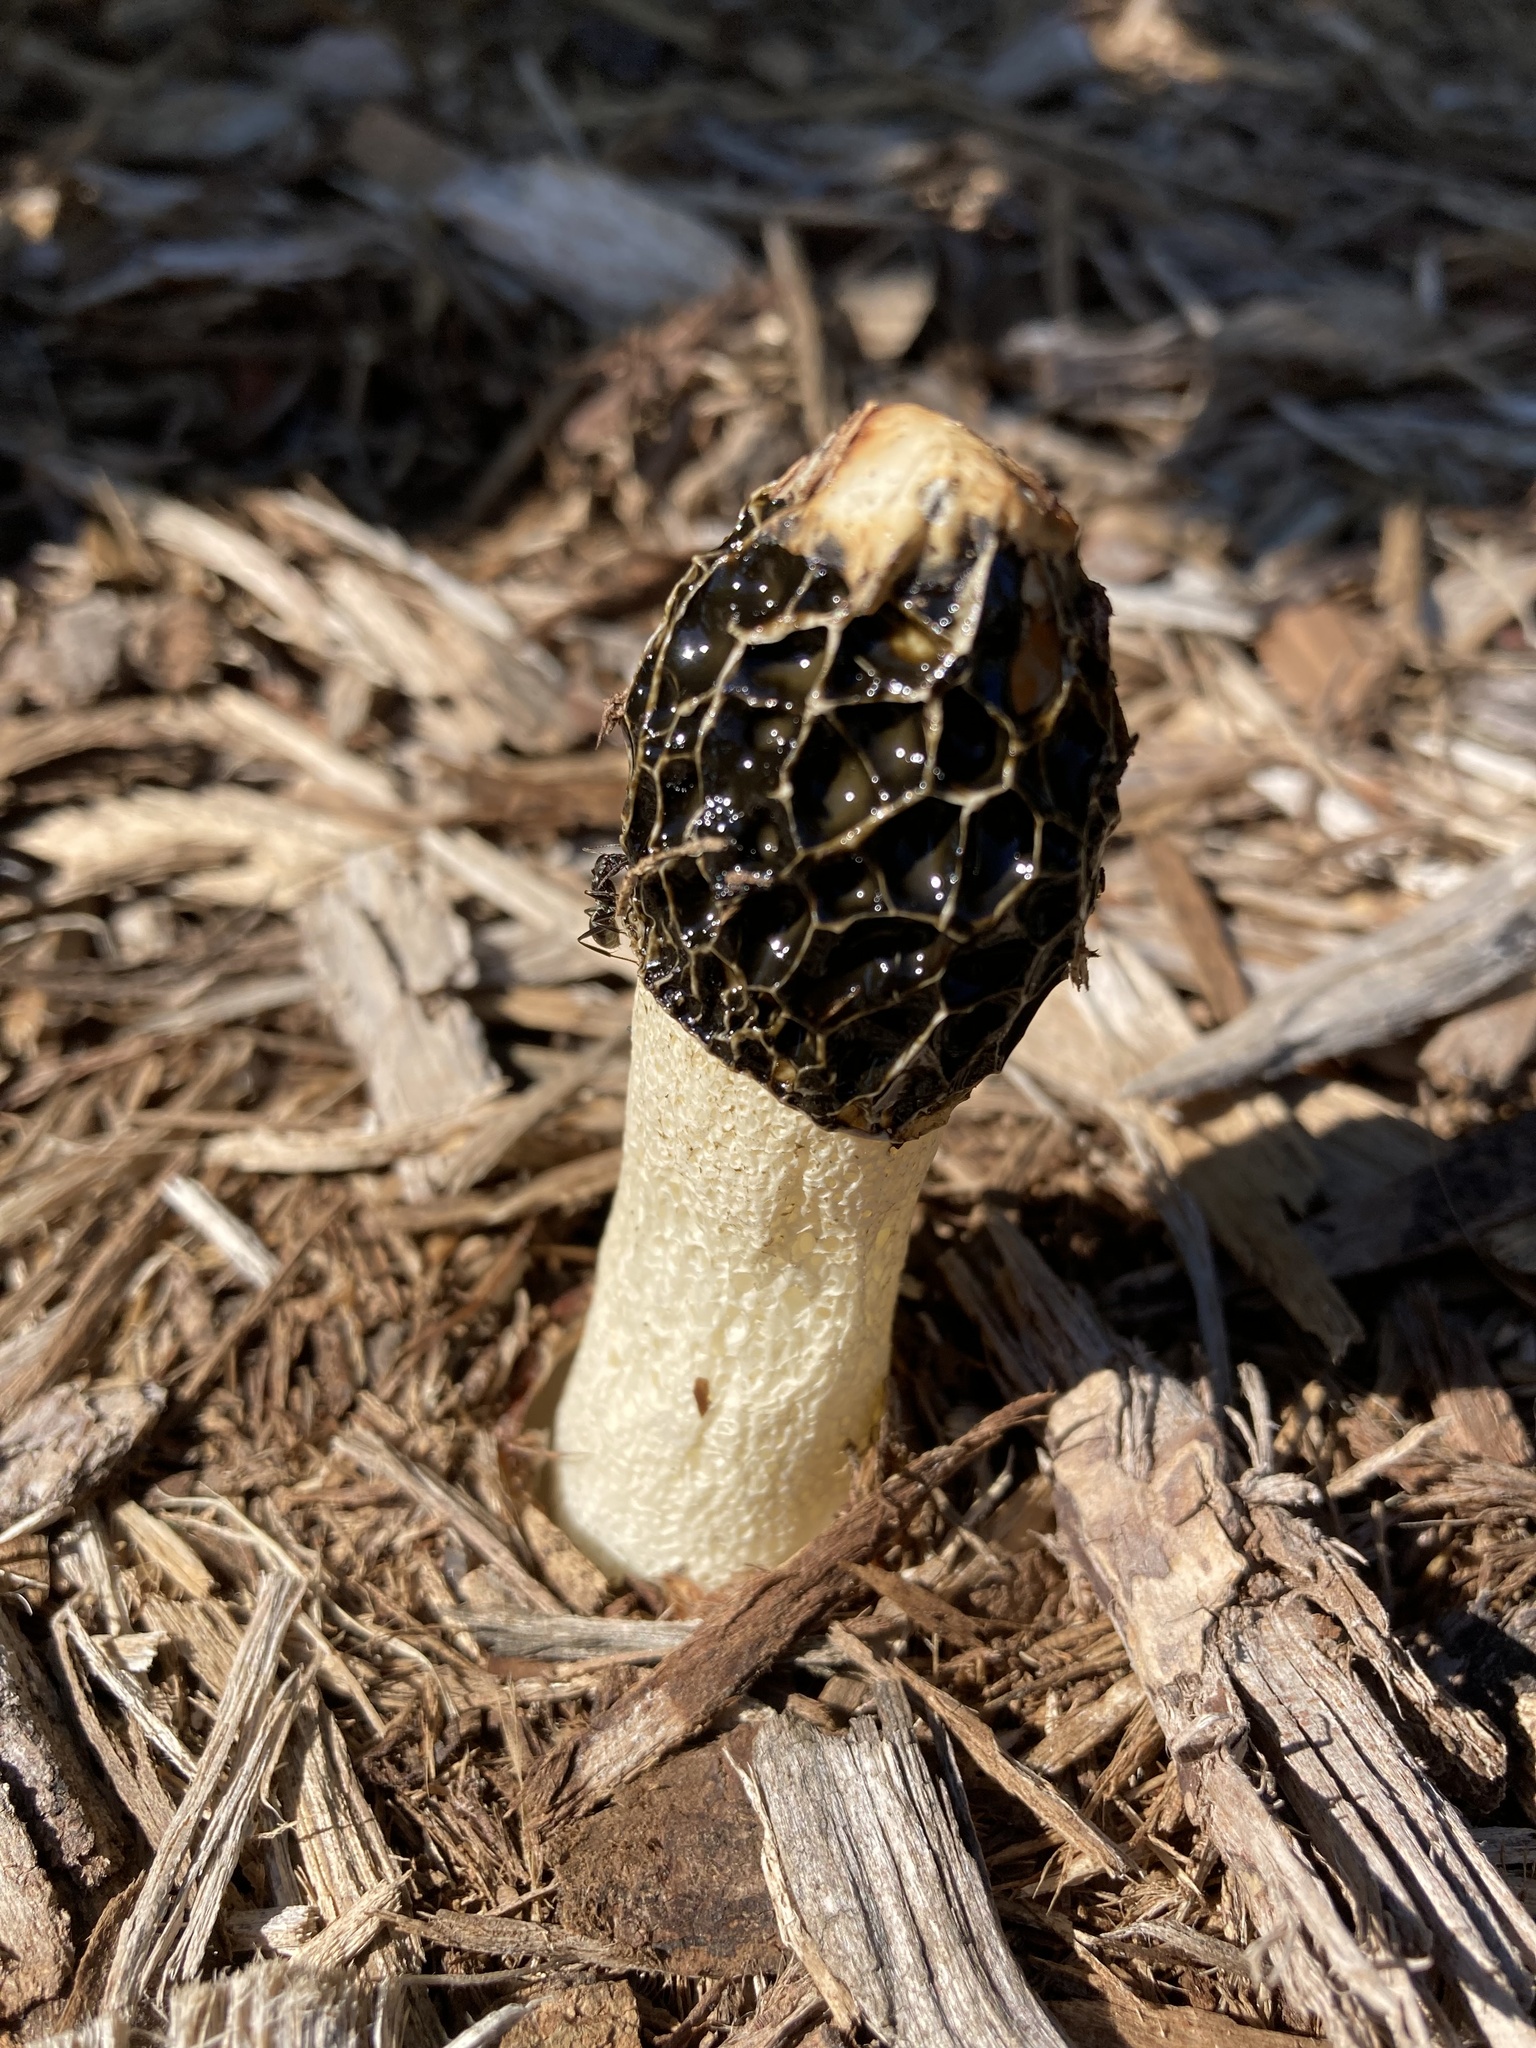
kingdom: Fungi
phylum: Basidiomycota
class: Agaricomycetes
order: Phallales
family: Phallaceae
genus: Phallus
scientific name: Phallus hadriani
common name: Sand stinkhorn
